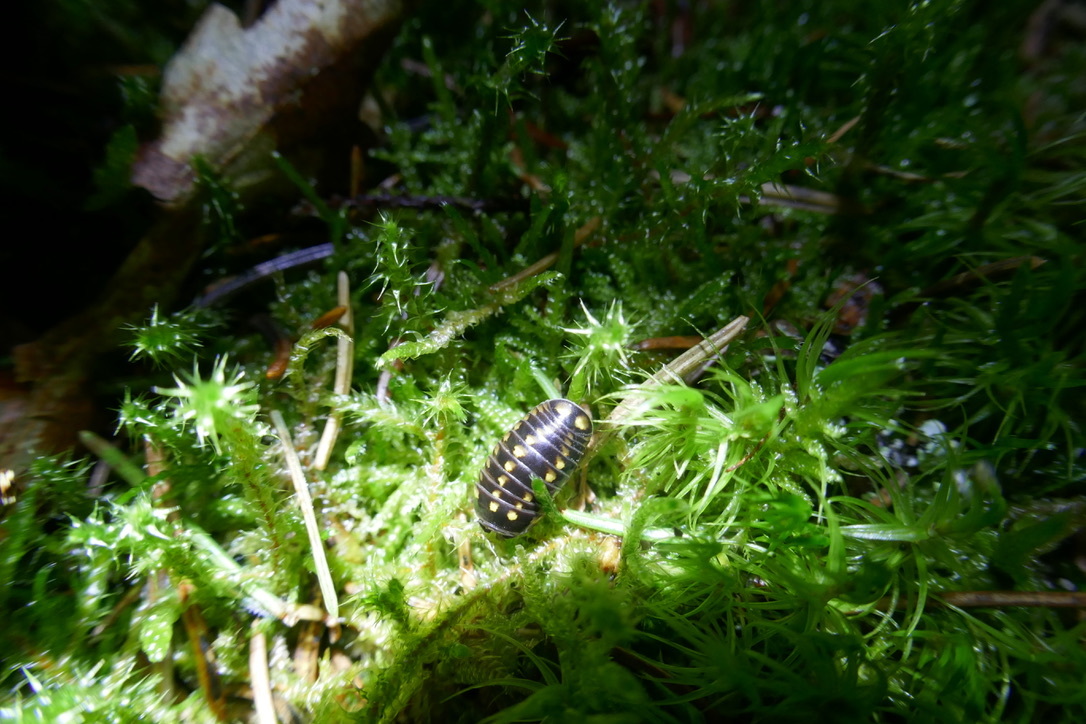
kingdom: Animalia
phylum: Arthropoda
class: Diplopoda
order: Glomerida
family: Glomeridae
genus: Glomeris
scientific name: Glomeris tetrasticha
